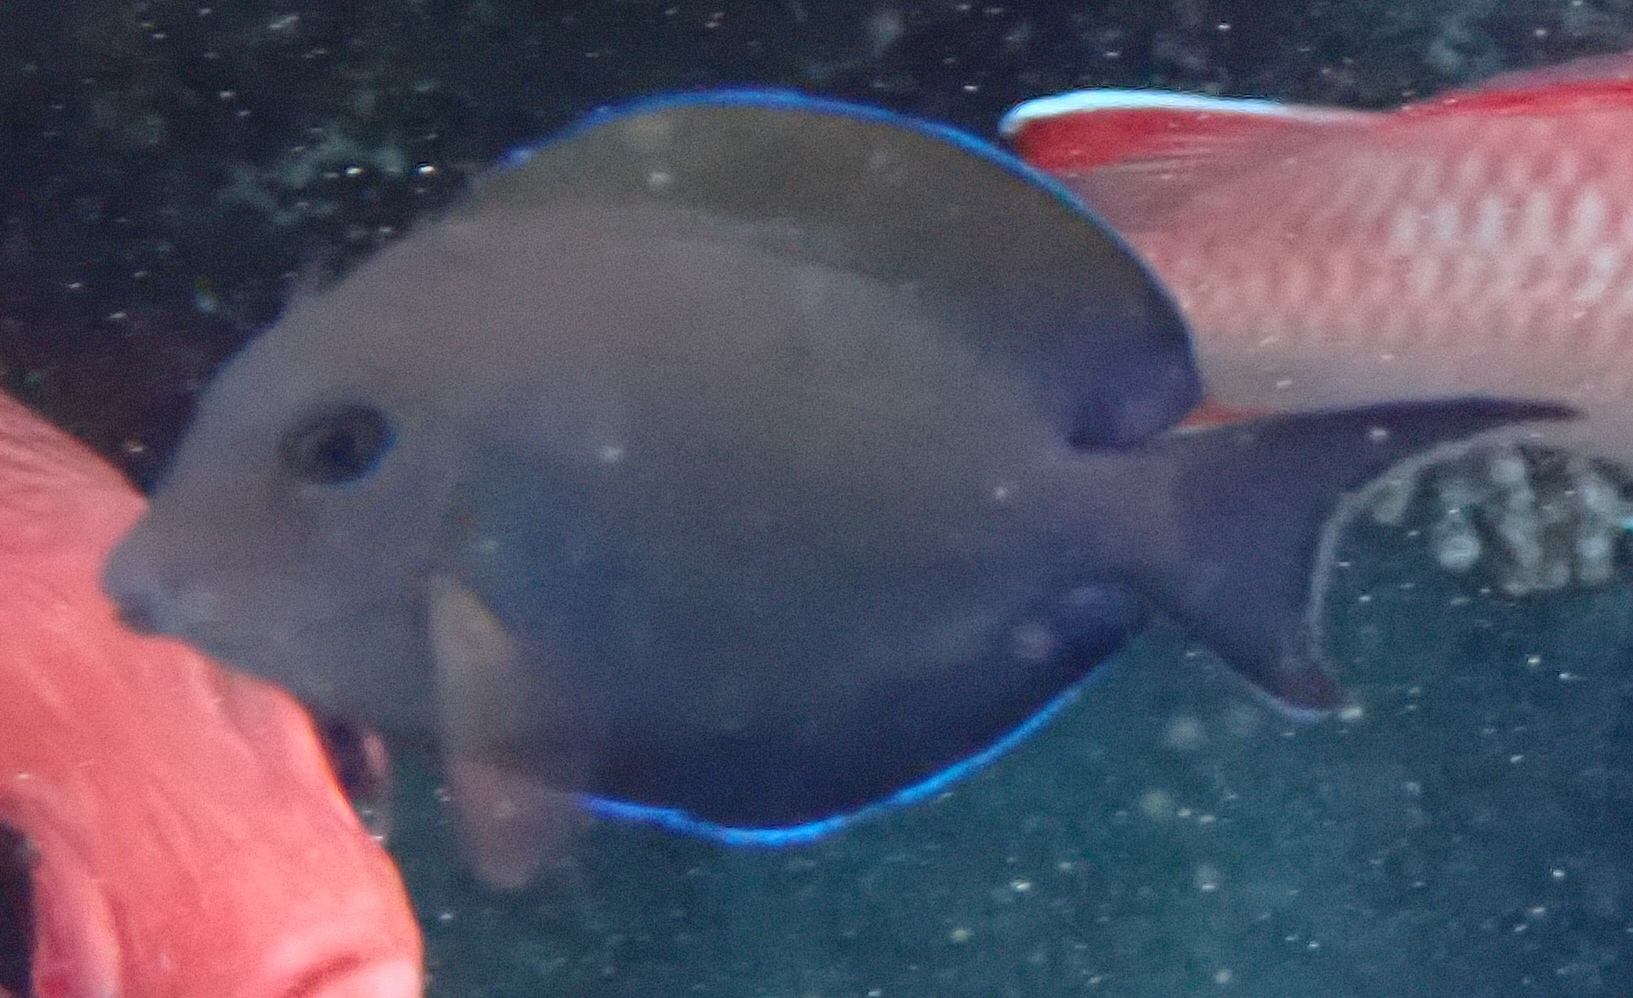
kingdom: Animalia
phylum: Chordata
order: Perciformes
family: Acanthuridae
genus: Acanthurus
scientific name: Acanthurus nigrofuscus
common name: Blackspot surgeonfish
